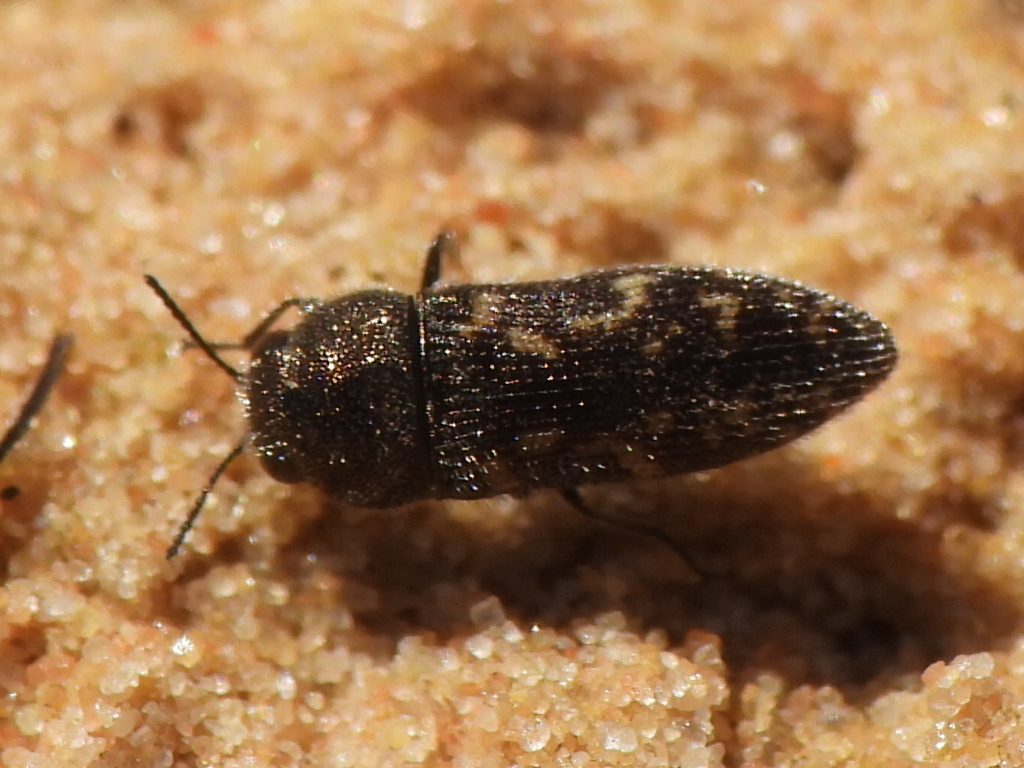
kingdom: Animalia
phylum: Arthropoda
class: Insecta
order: Coleoptera
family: Buprestidae
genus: Acmaeodera
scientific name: Acmaeodera neglecta
